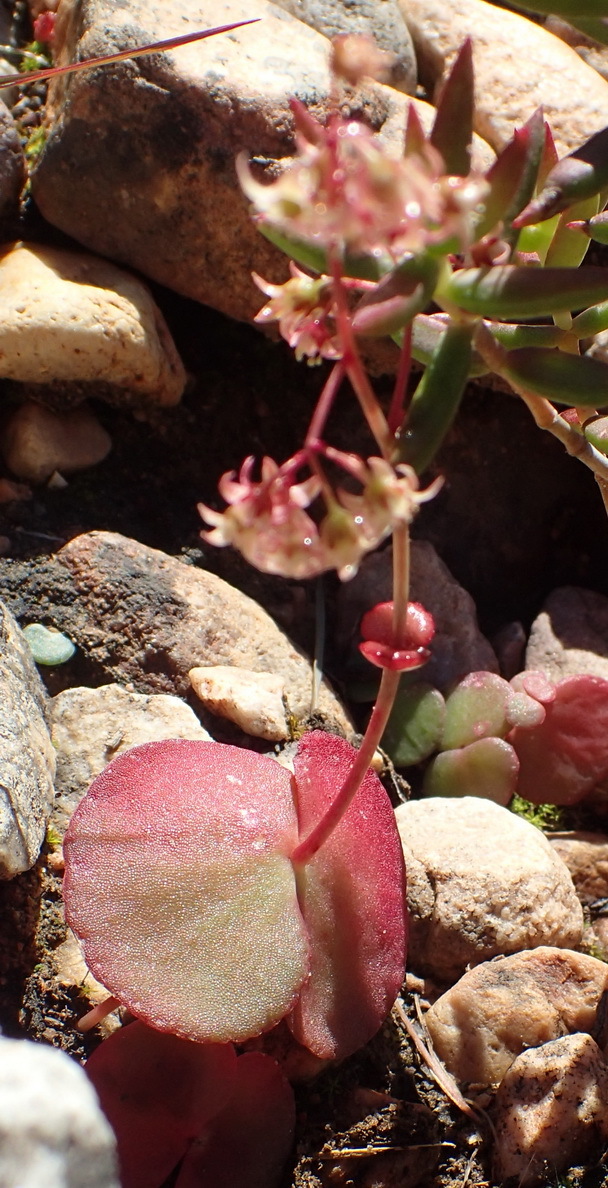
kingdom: Plantae
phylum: Tracheophyta
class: Magnoliopsida
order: Saxifragales
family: Crassulaceae
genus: Crassula
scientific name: Crassula umbella
